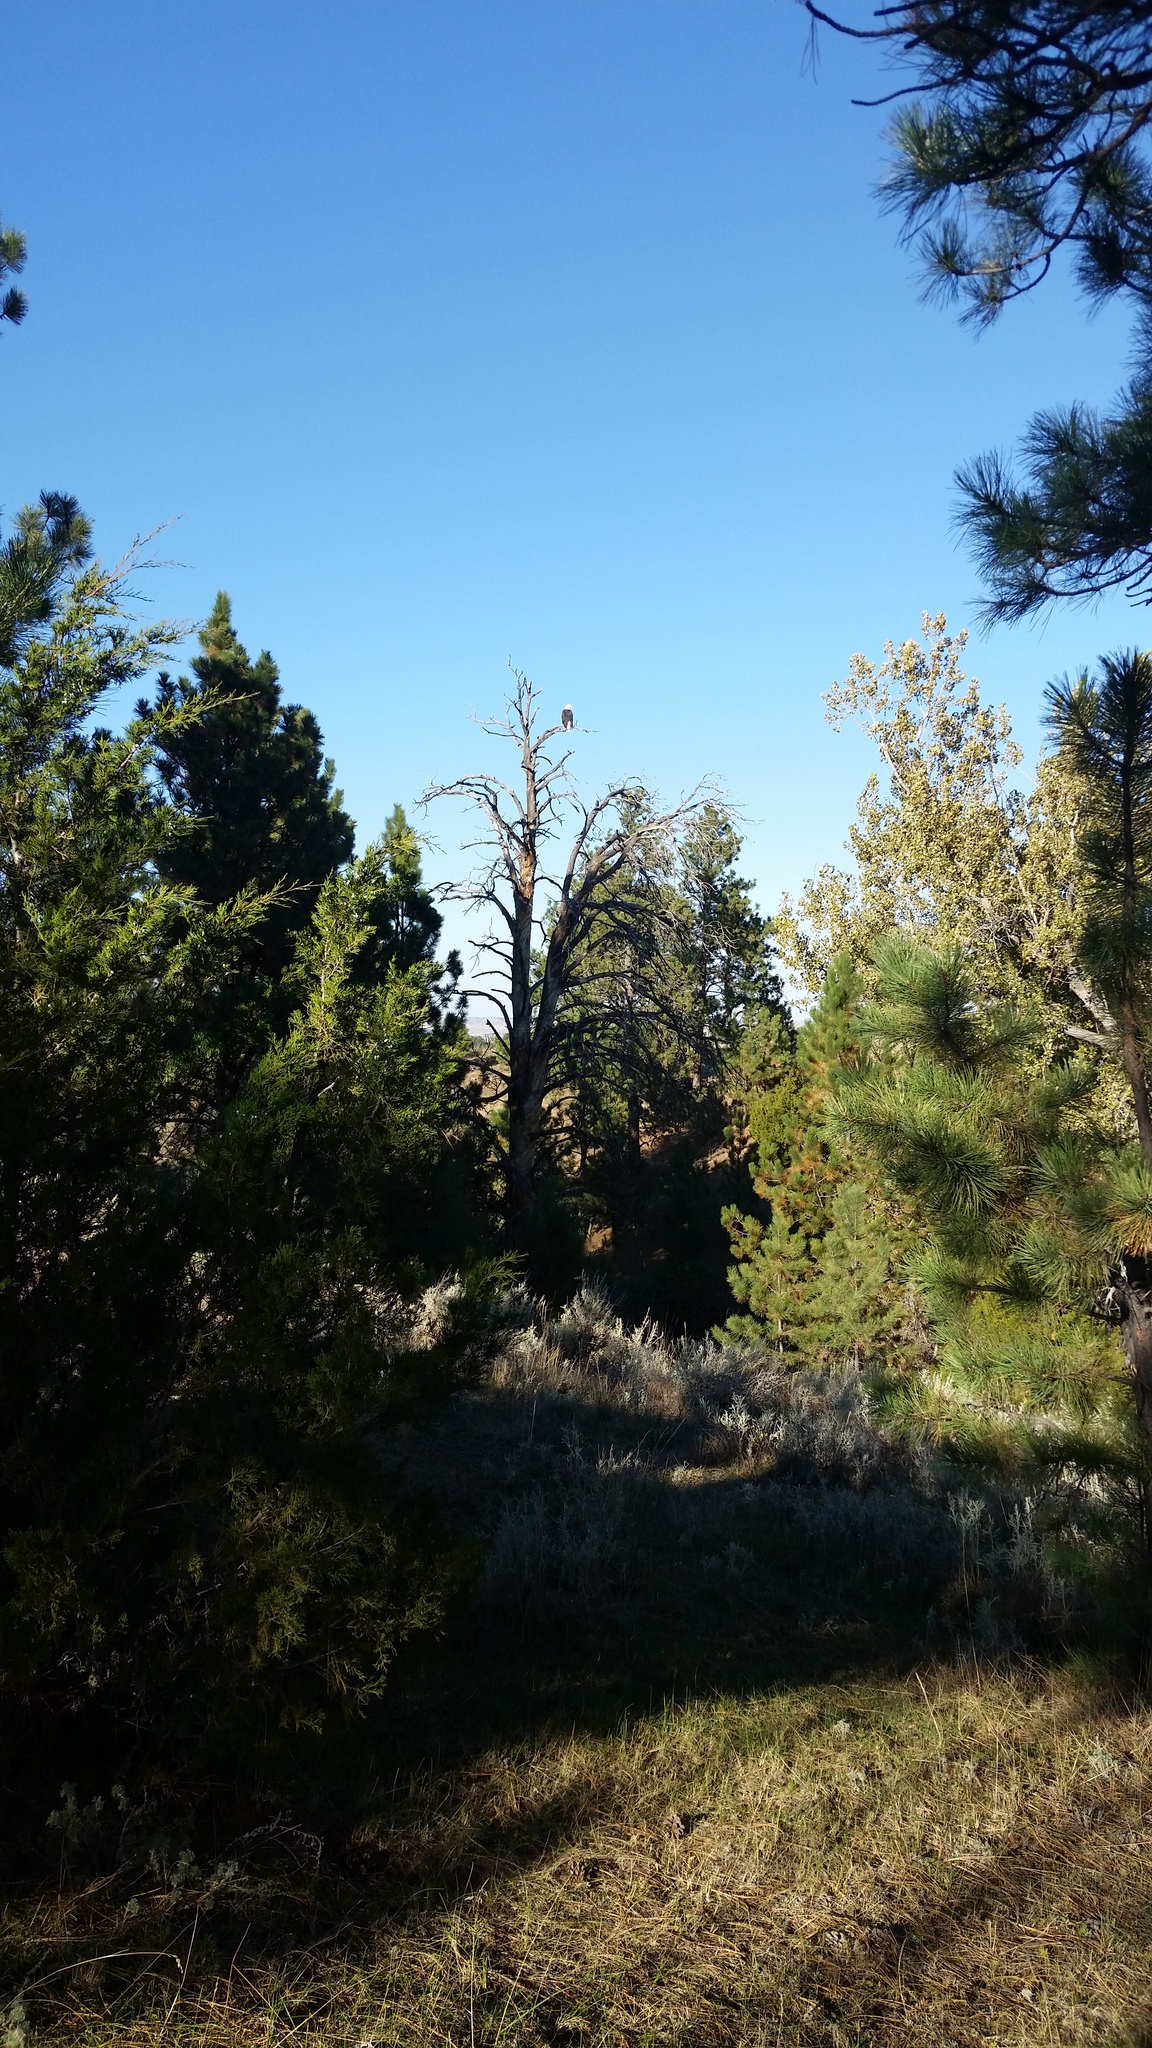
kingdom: Animalia
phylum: Chordata
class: Aves
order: Accipitriformes
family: Accipitridae
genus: Haliaeetus
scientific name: Haliaeetus leucocephalus
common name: Bald eagle
